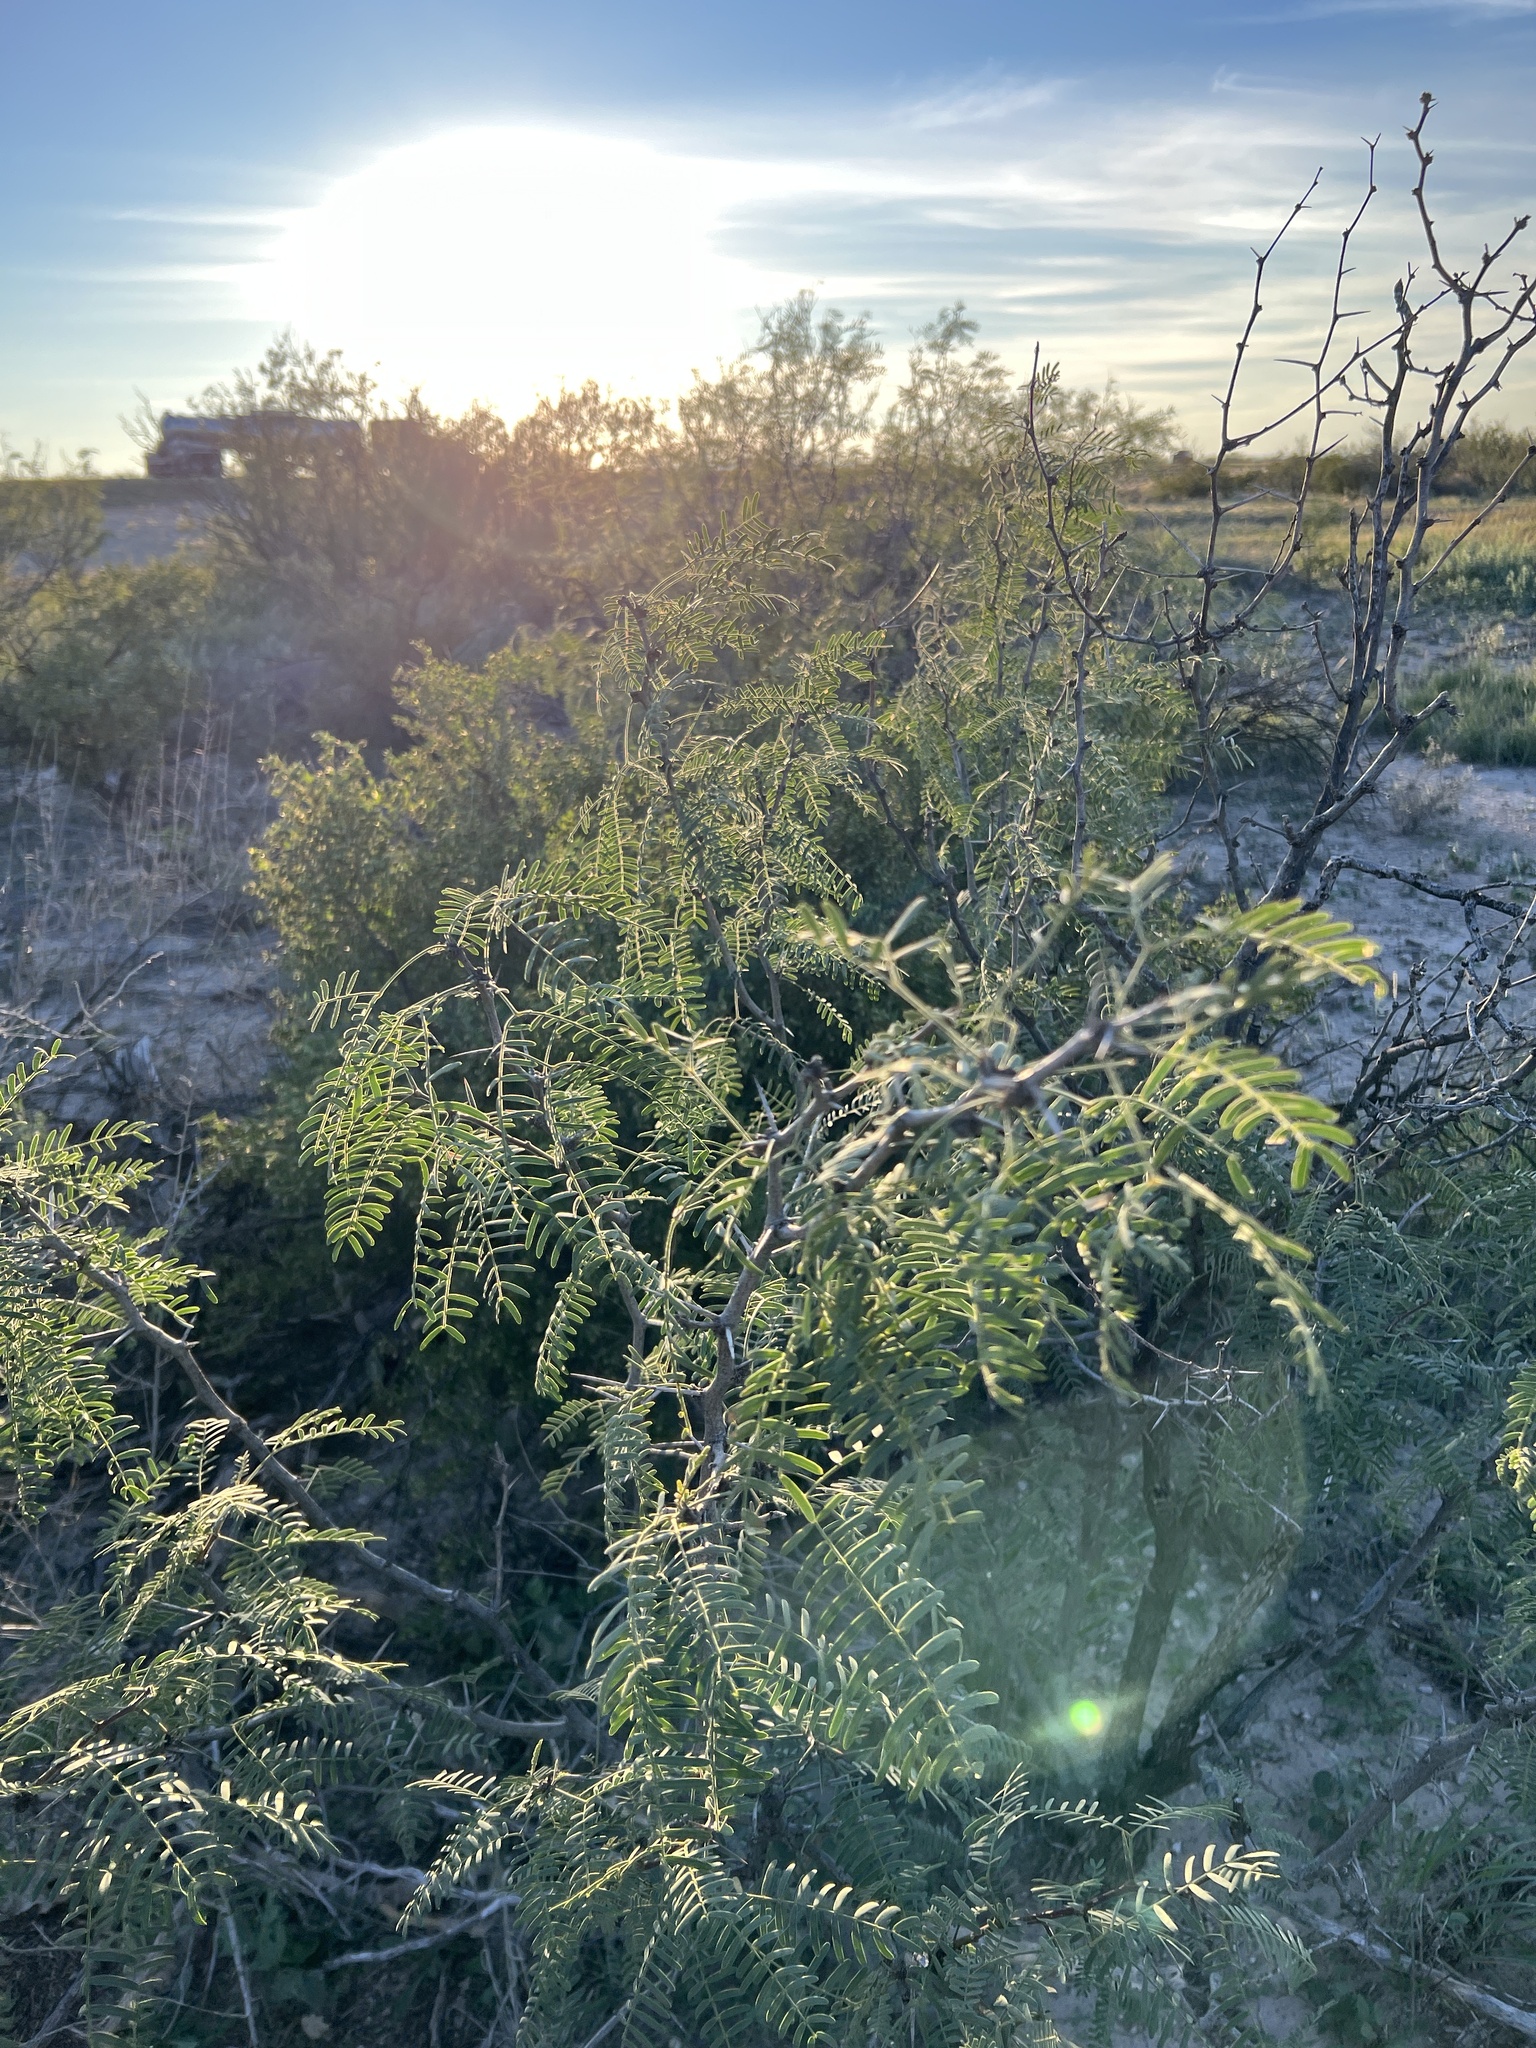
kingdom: Plantae
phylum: Tracheophyta
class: Magnoliopsida
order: Fabales
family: Fabaceae
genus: Prosopis
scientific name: Prosopis glandulosa
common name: Honey mesquite
